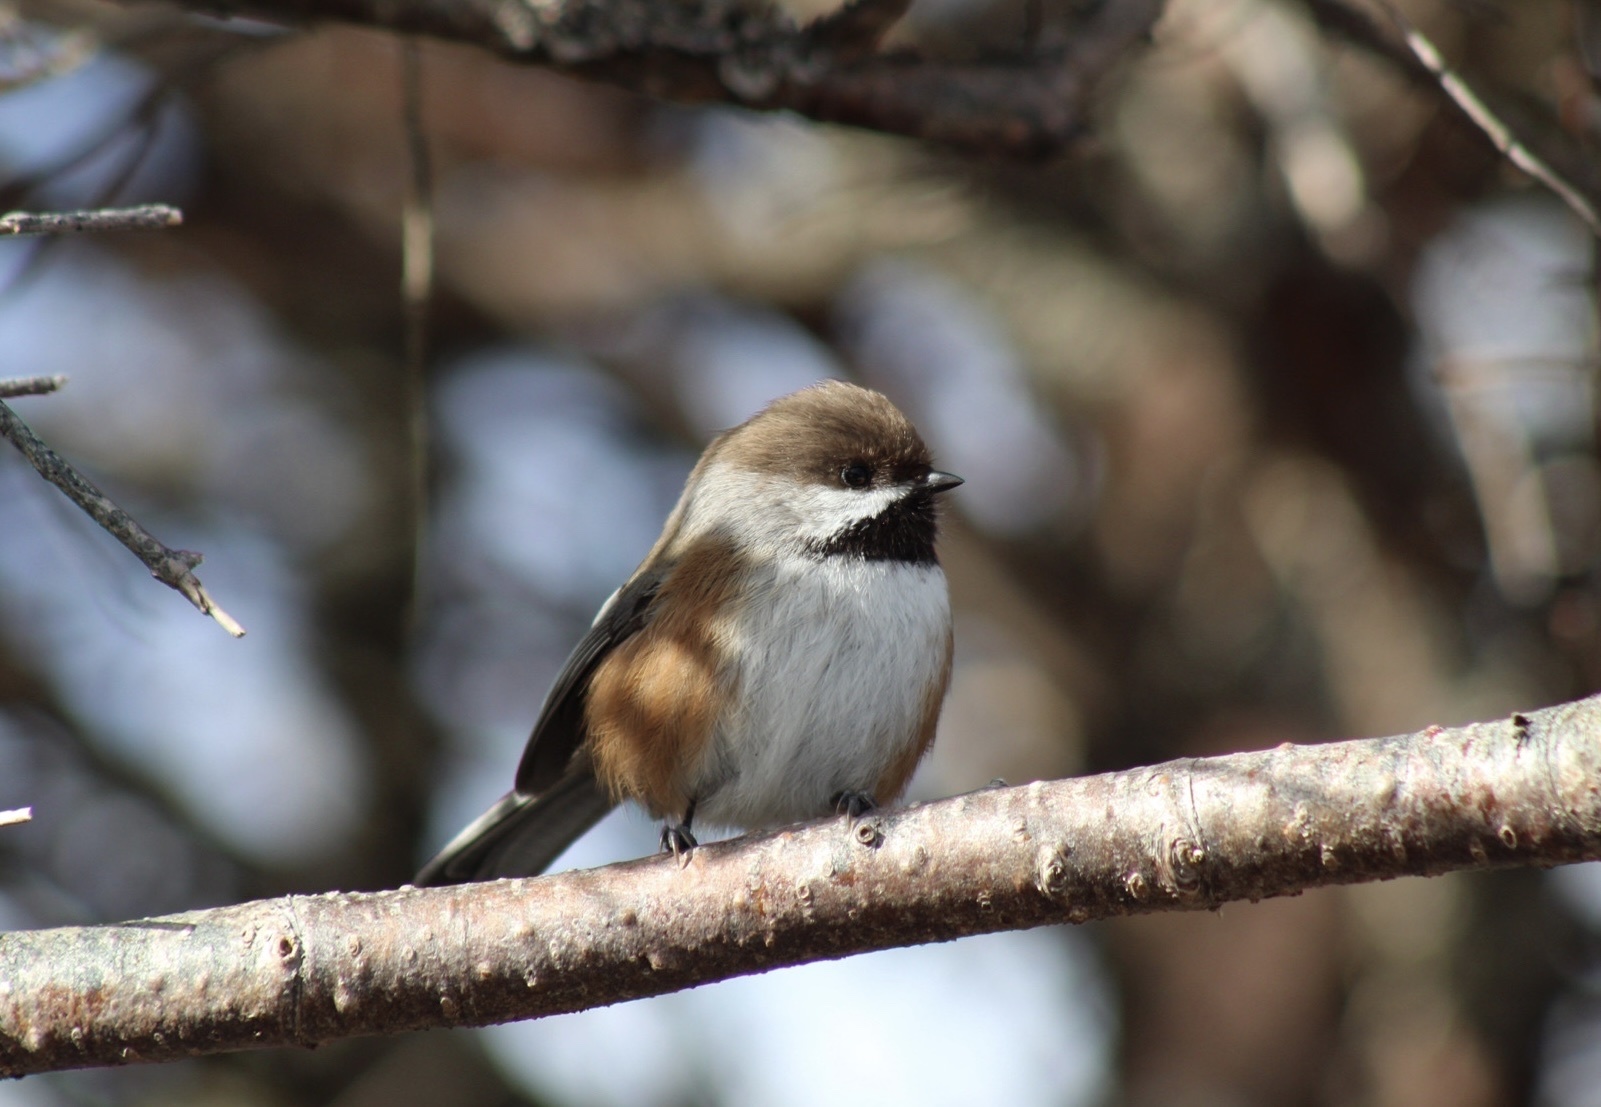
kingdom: Animalia
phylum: Chordata
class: Aves
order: Passeriformes
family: Paridae
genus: Poecile
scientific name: Poecile hudsonicus
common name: Boreal chickadee
